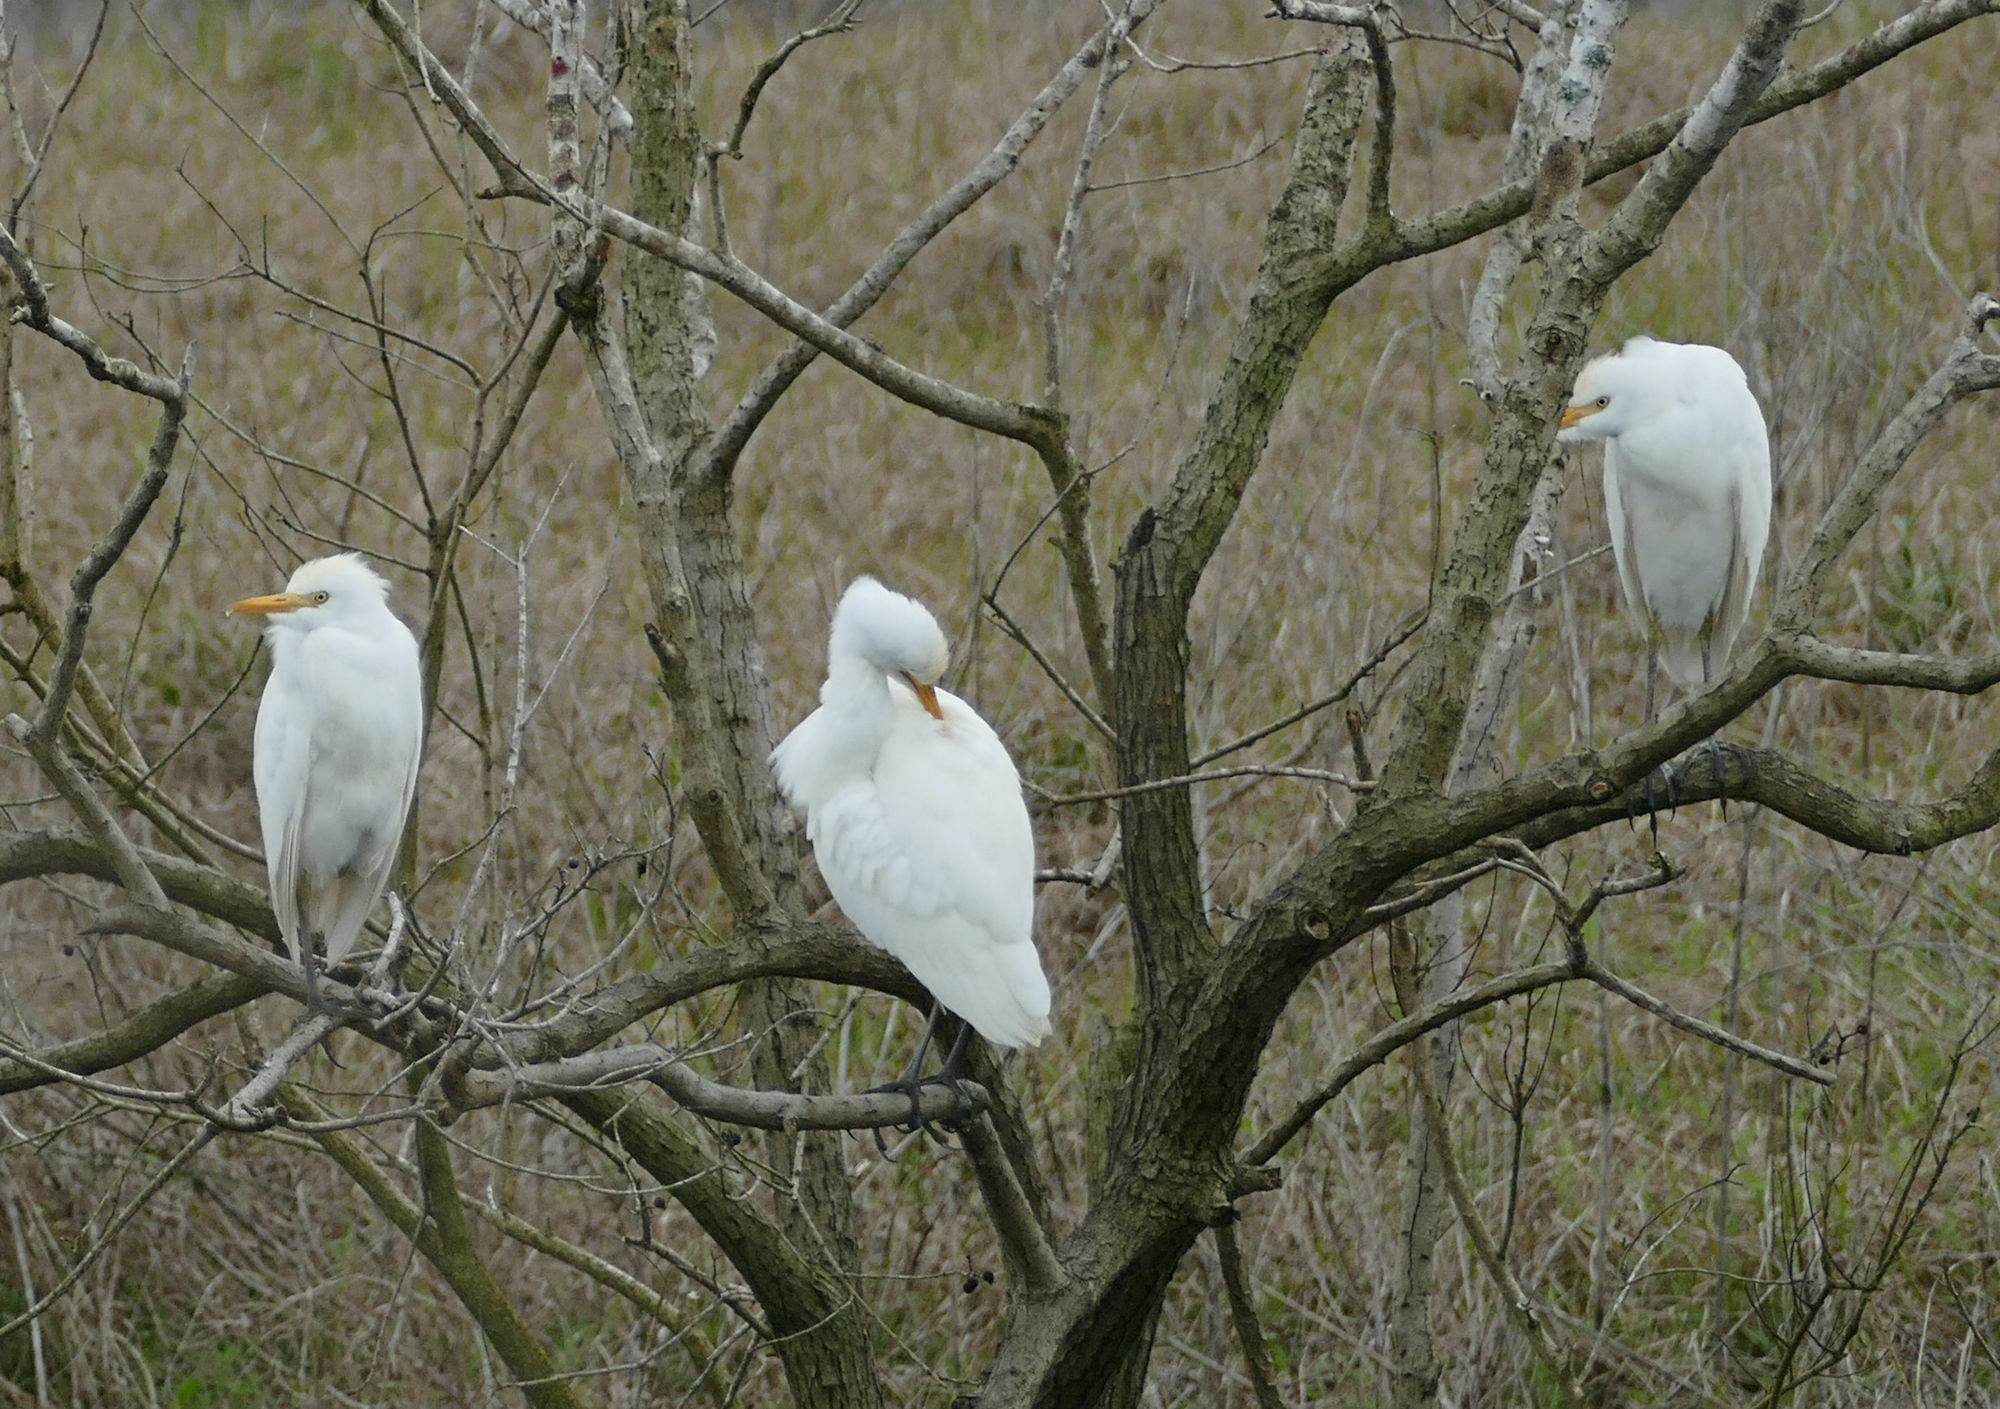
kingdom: Animalia
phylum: Chordata
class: Aves
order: Pelecaniformes
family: Ardeidae
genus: Bubulcus
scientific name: Bubulcus ibis
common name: Cattle egret
